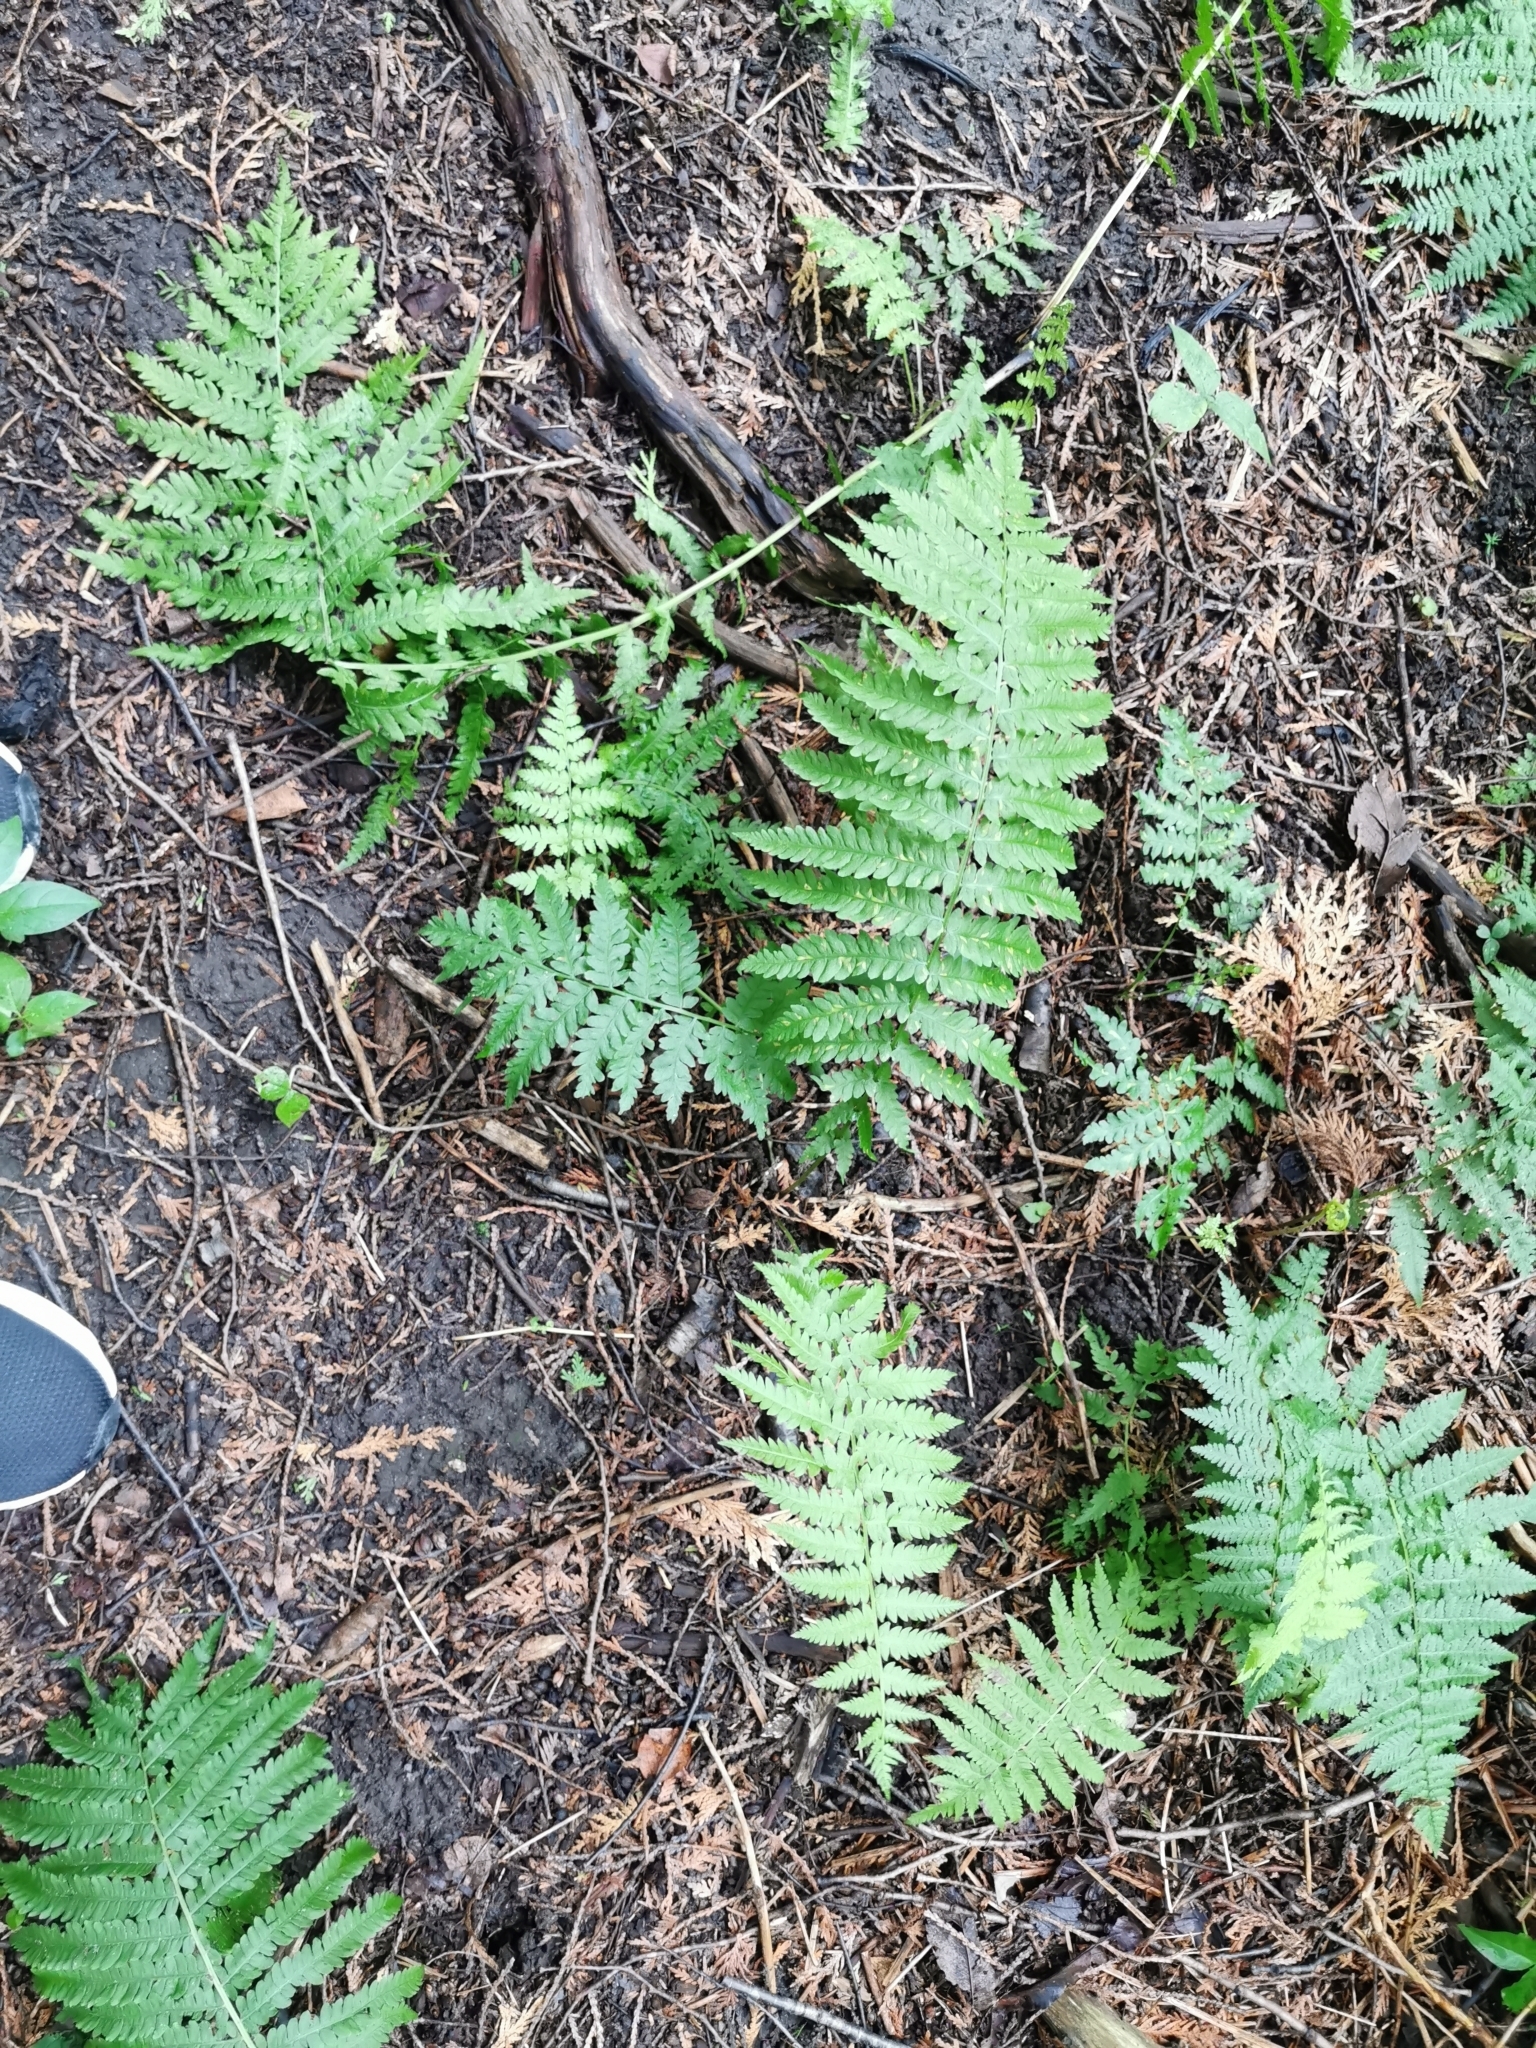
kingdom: Plantae
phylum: Tracheophyta
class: Polypodiopsida
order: Polypodiales
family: Thelypteridaceae
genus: Amauropelta
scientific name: Amauropelta noveboracensis
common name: New york fern
